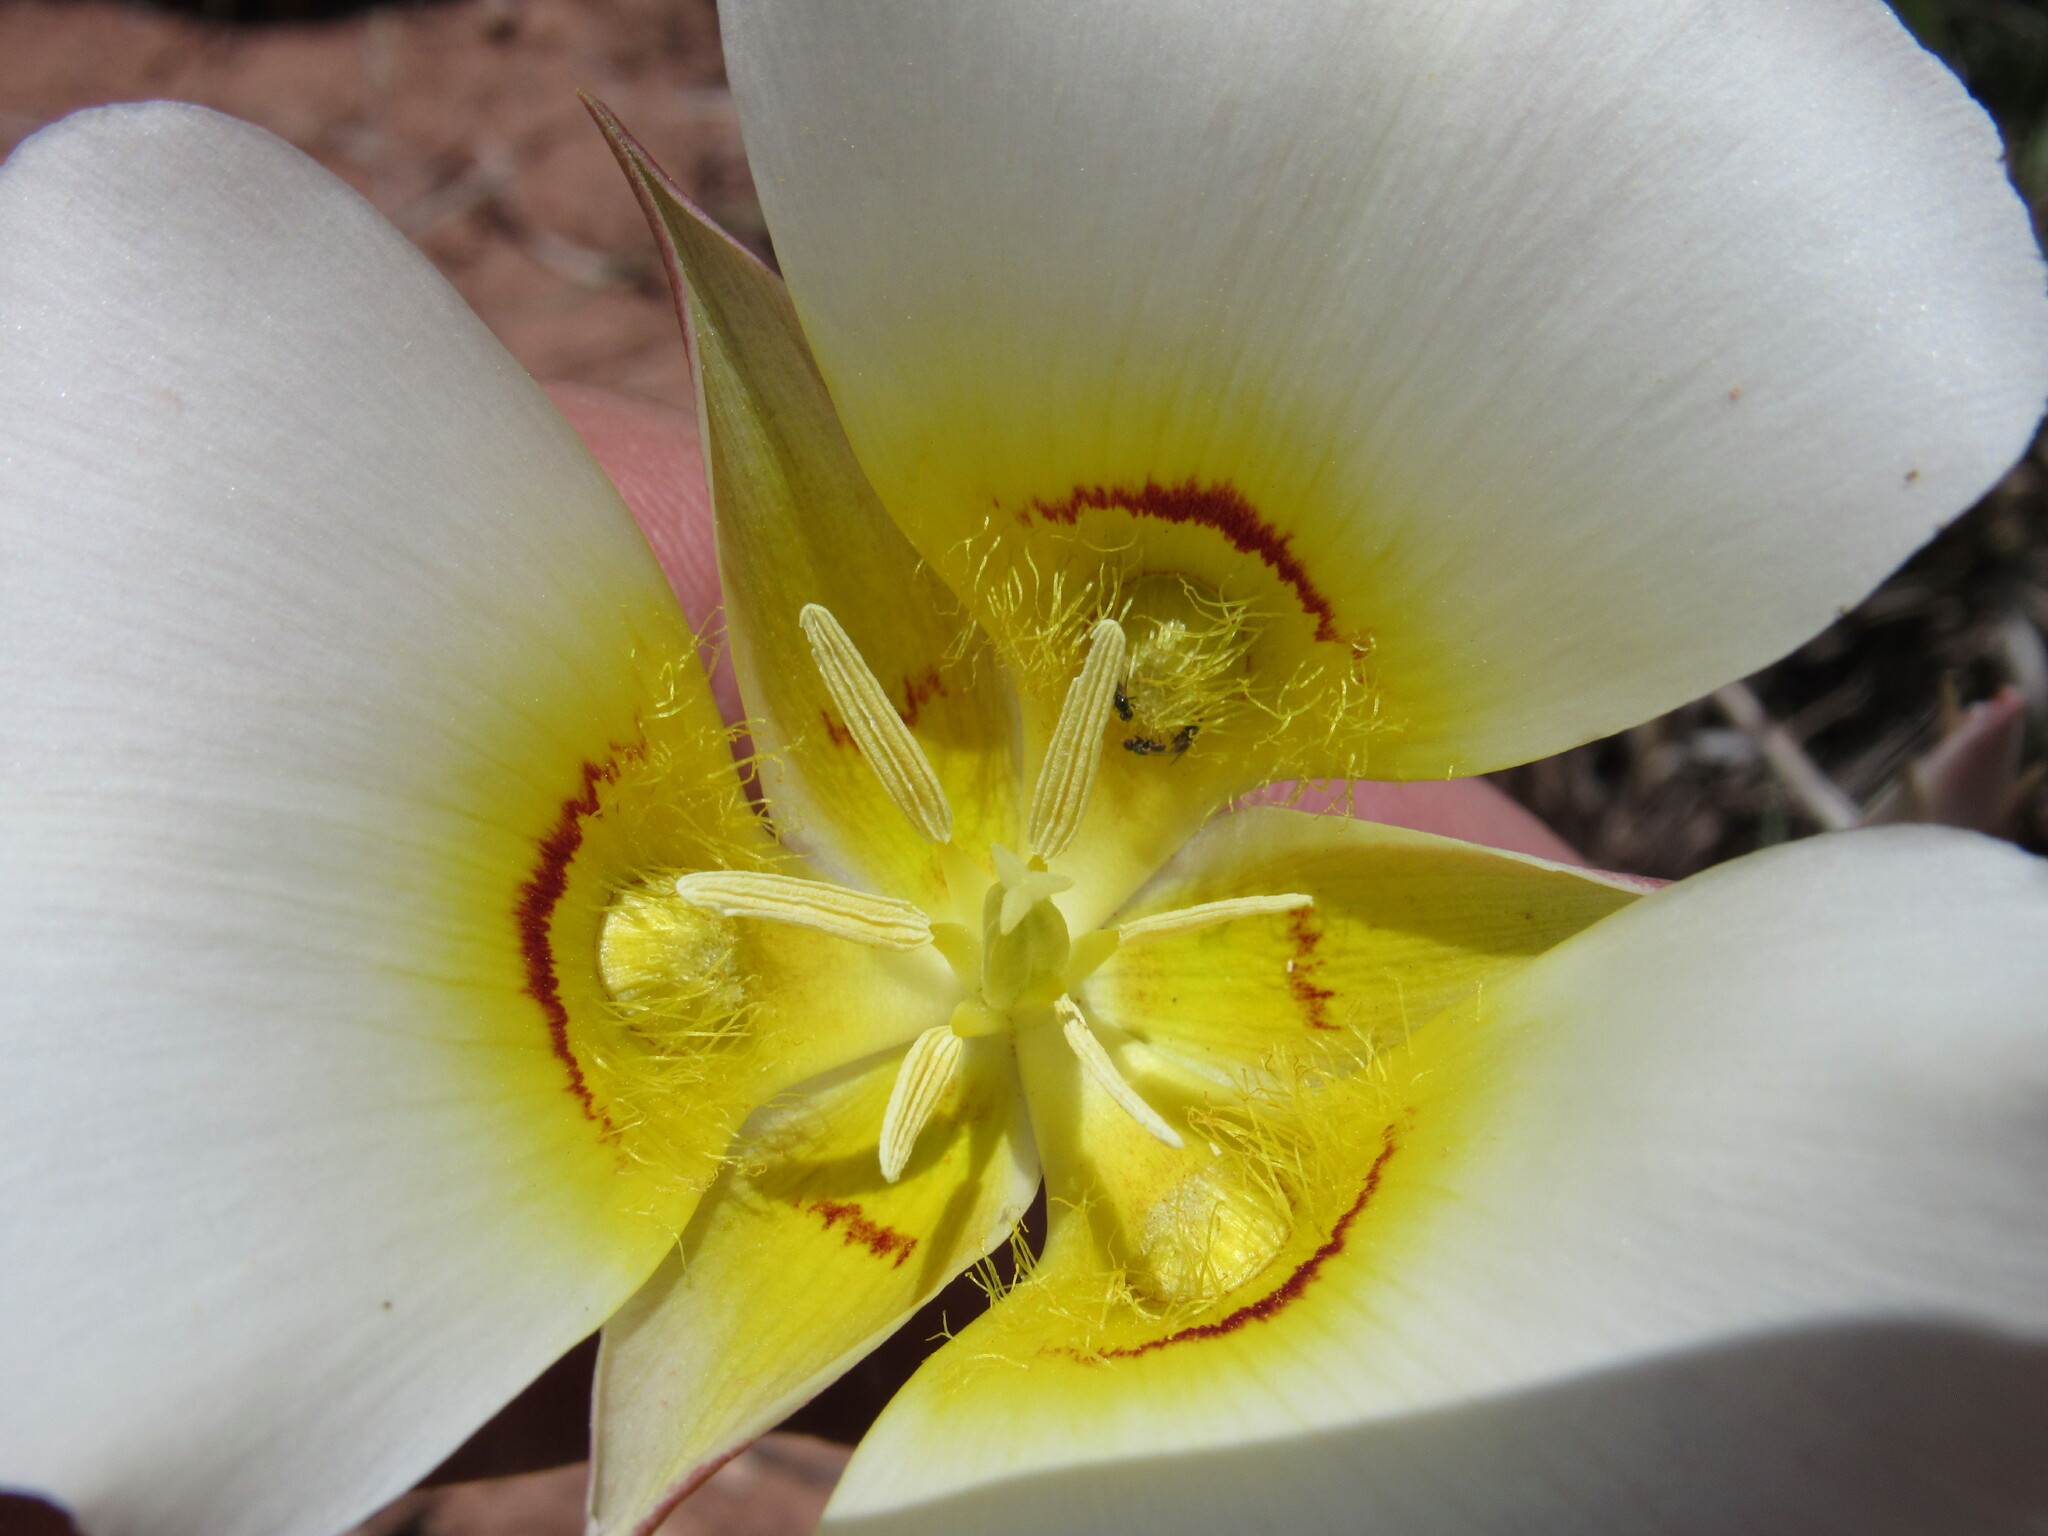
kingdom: Plantae
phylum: Tracheophyta
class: Liliopsida
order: Liliales
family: Liliaceae
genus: Calochortus
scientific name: Calochortus nuttallii
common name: Sego-lily
